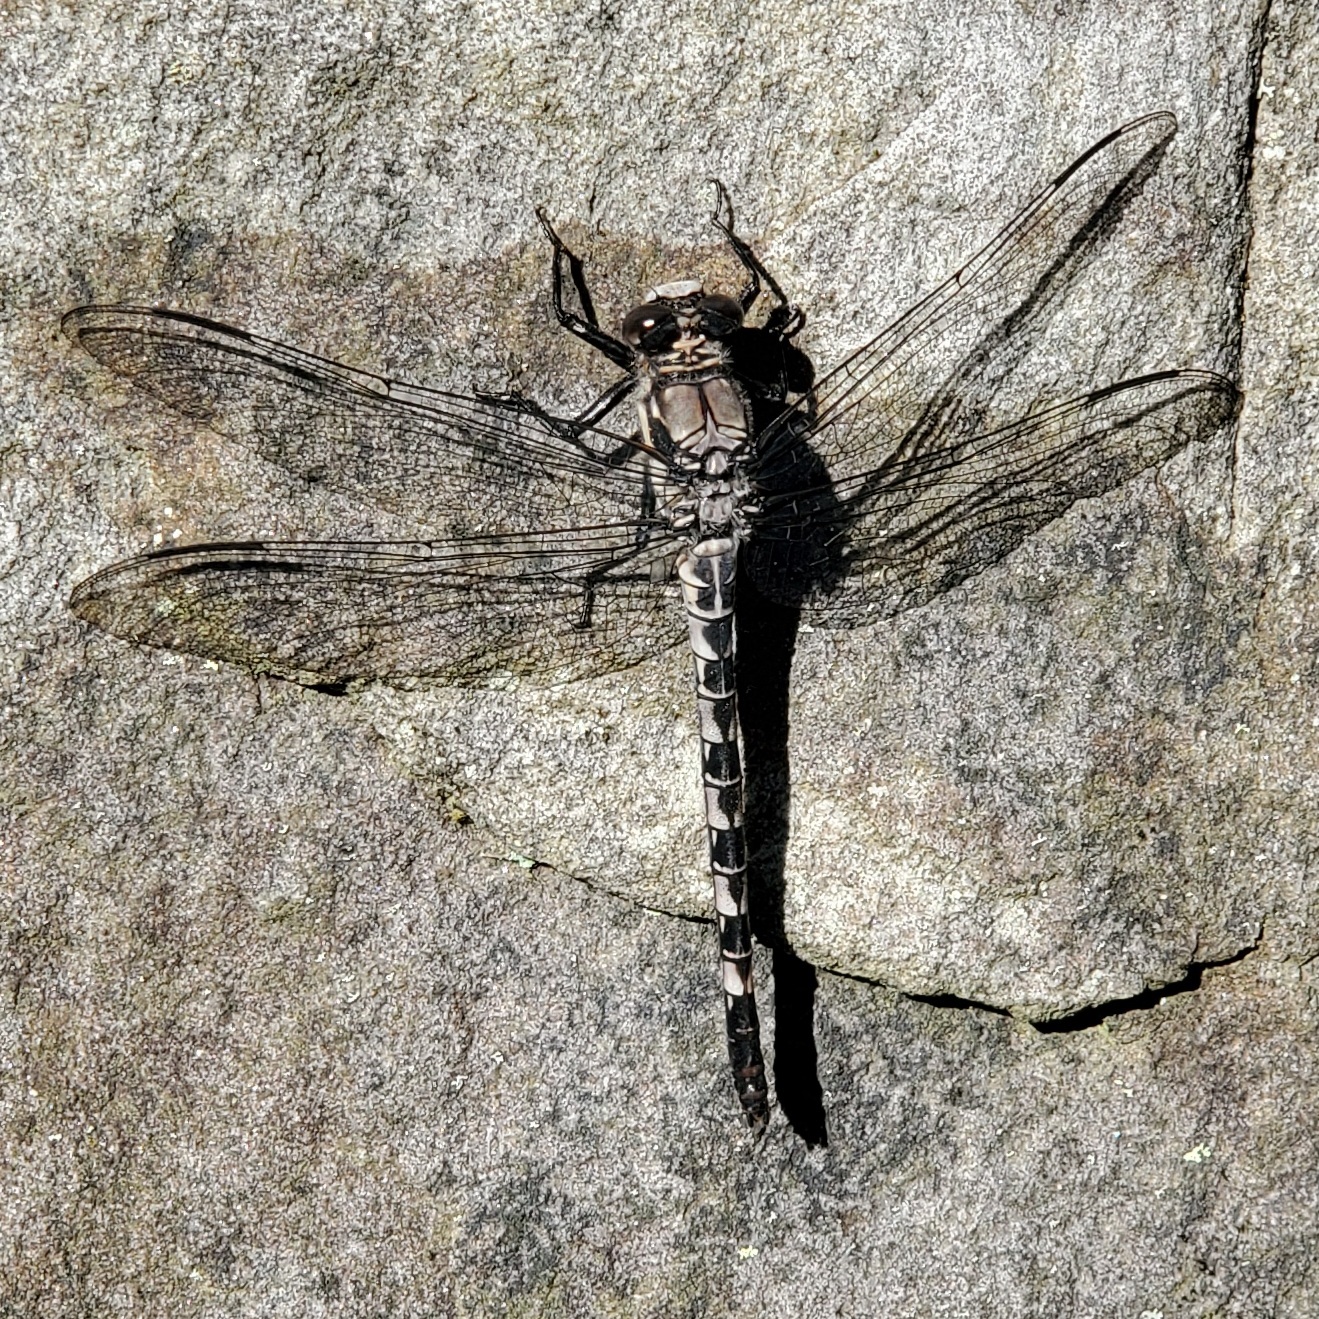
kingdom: Animalia
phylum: Arthropoda
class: Insecta
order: Odonata
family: Petaluridae
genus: Tachopteryx
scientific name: Tachopteryx thoreyi
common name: Gray petaltail
